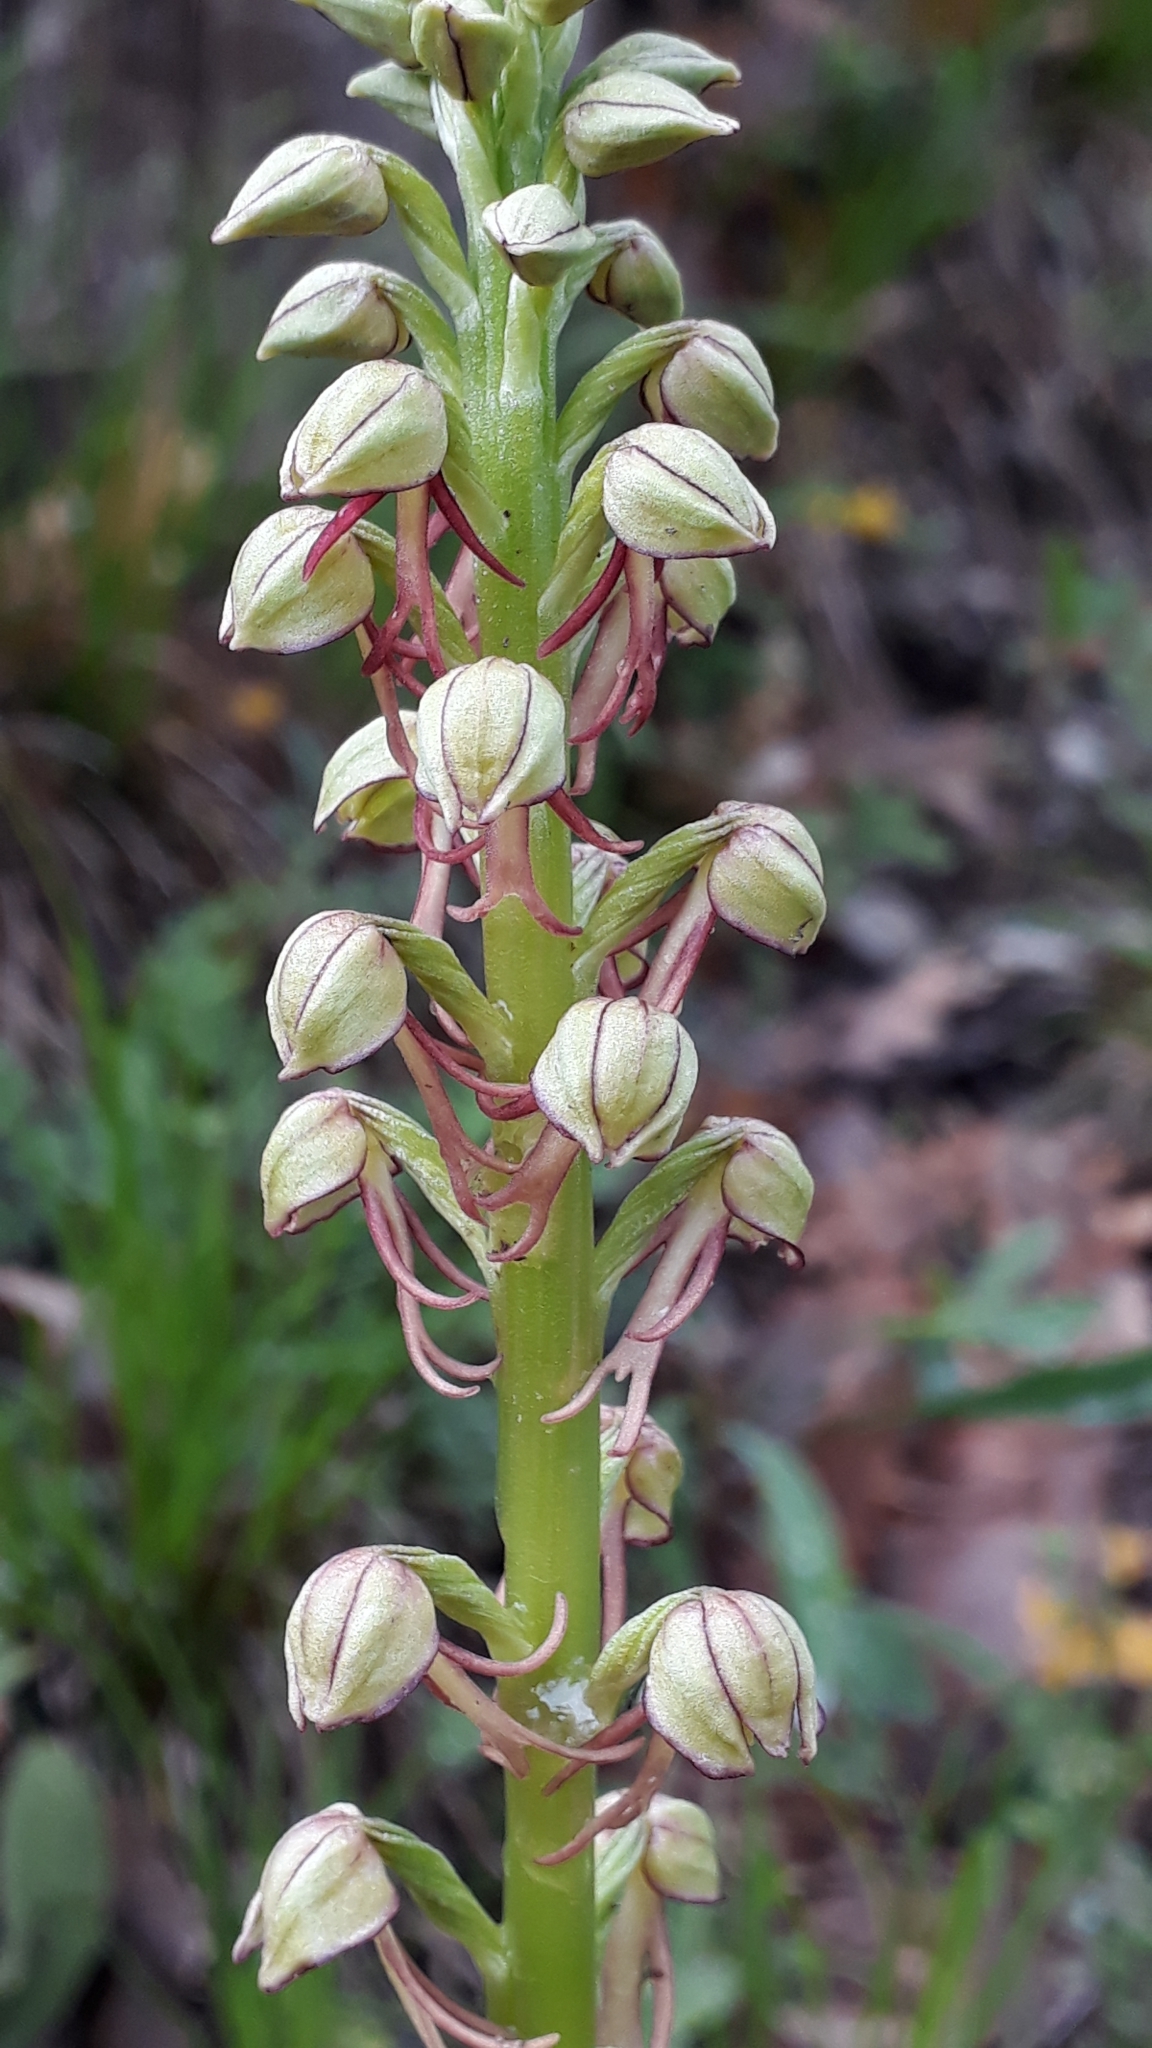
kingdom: Plantae
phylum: Tracheophyta
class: Liliopsida
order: Asparagales
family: Orchidaceae
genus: Orchis
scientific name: Orchis anthropophora
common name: Man orchid
